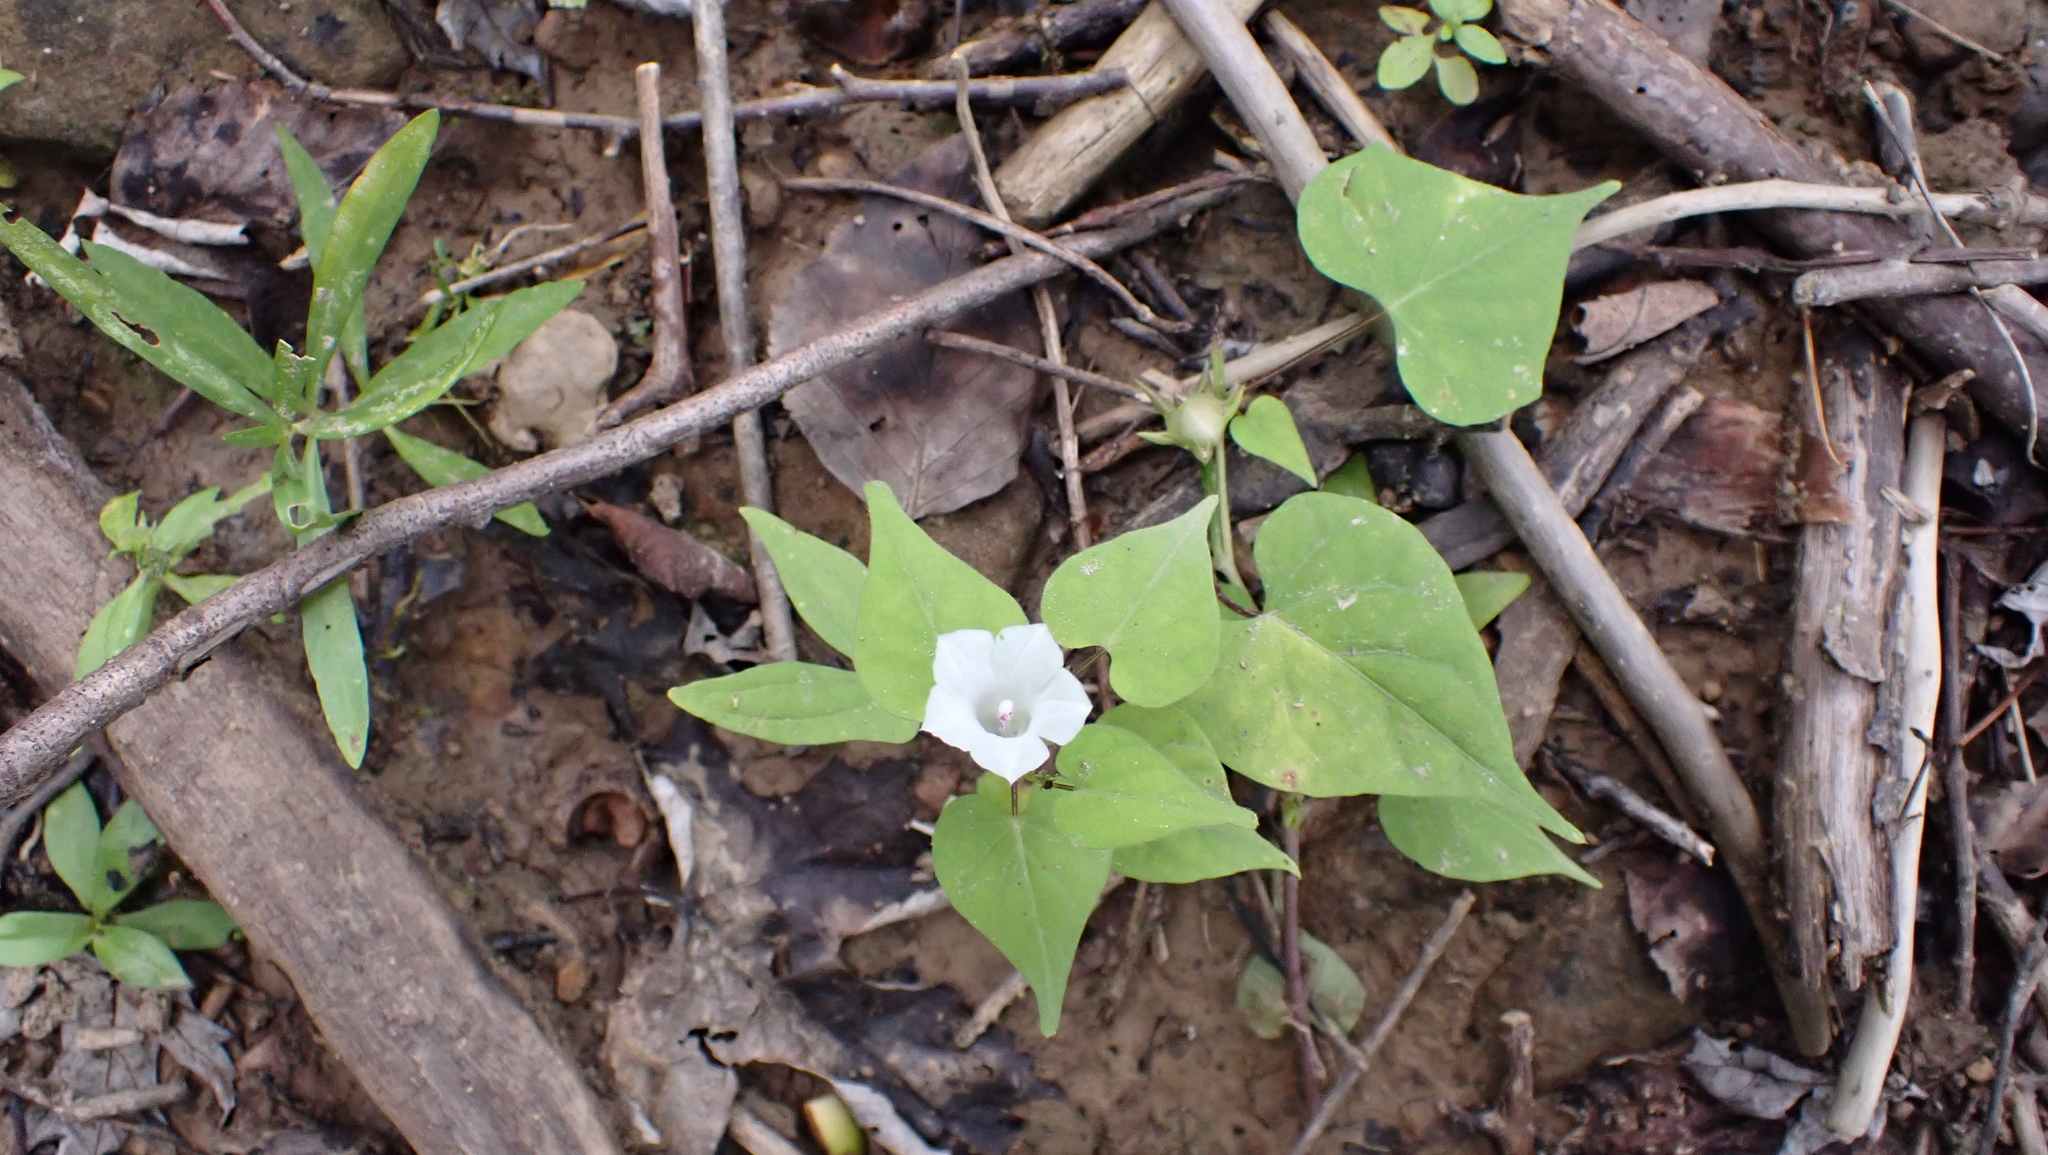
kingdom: Plantae
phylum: Tracheophyta
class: Magnoliopsida
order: Solanales
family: Convolvulaceae
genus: Ipomoea
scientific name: Ipomoea lacunosa
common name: White morning-glory
